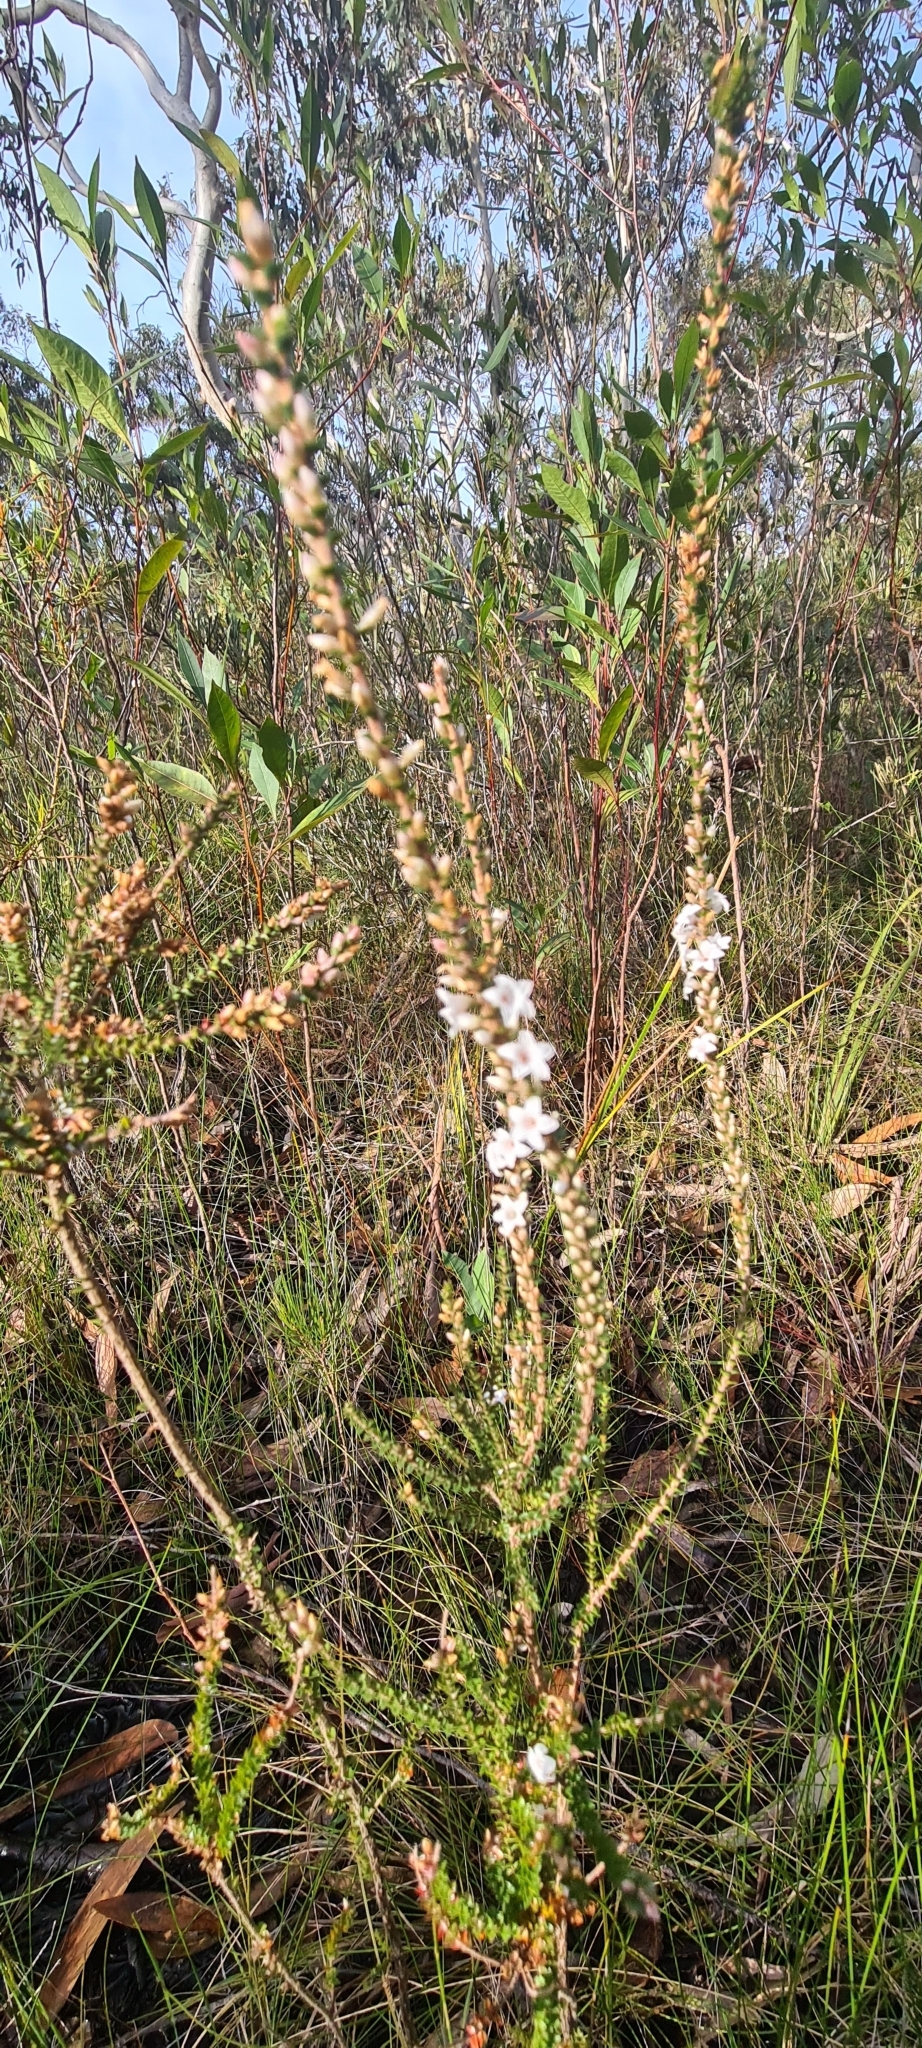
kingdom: Plantae
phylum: Tracheophyta
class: Magnoliopsida
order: Ericales
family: Ericaceae
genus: Epacris
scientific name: Epacris microphylla
